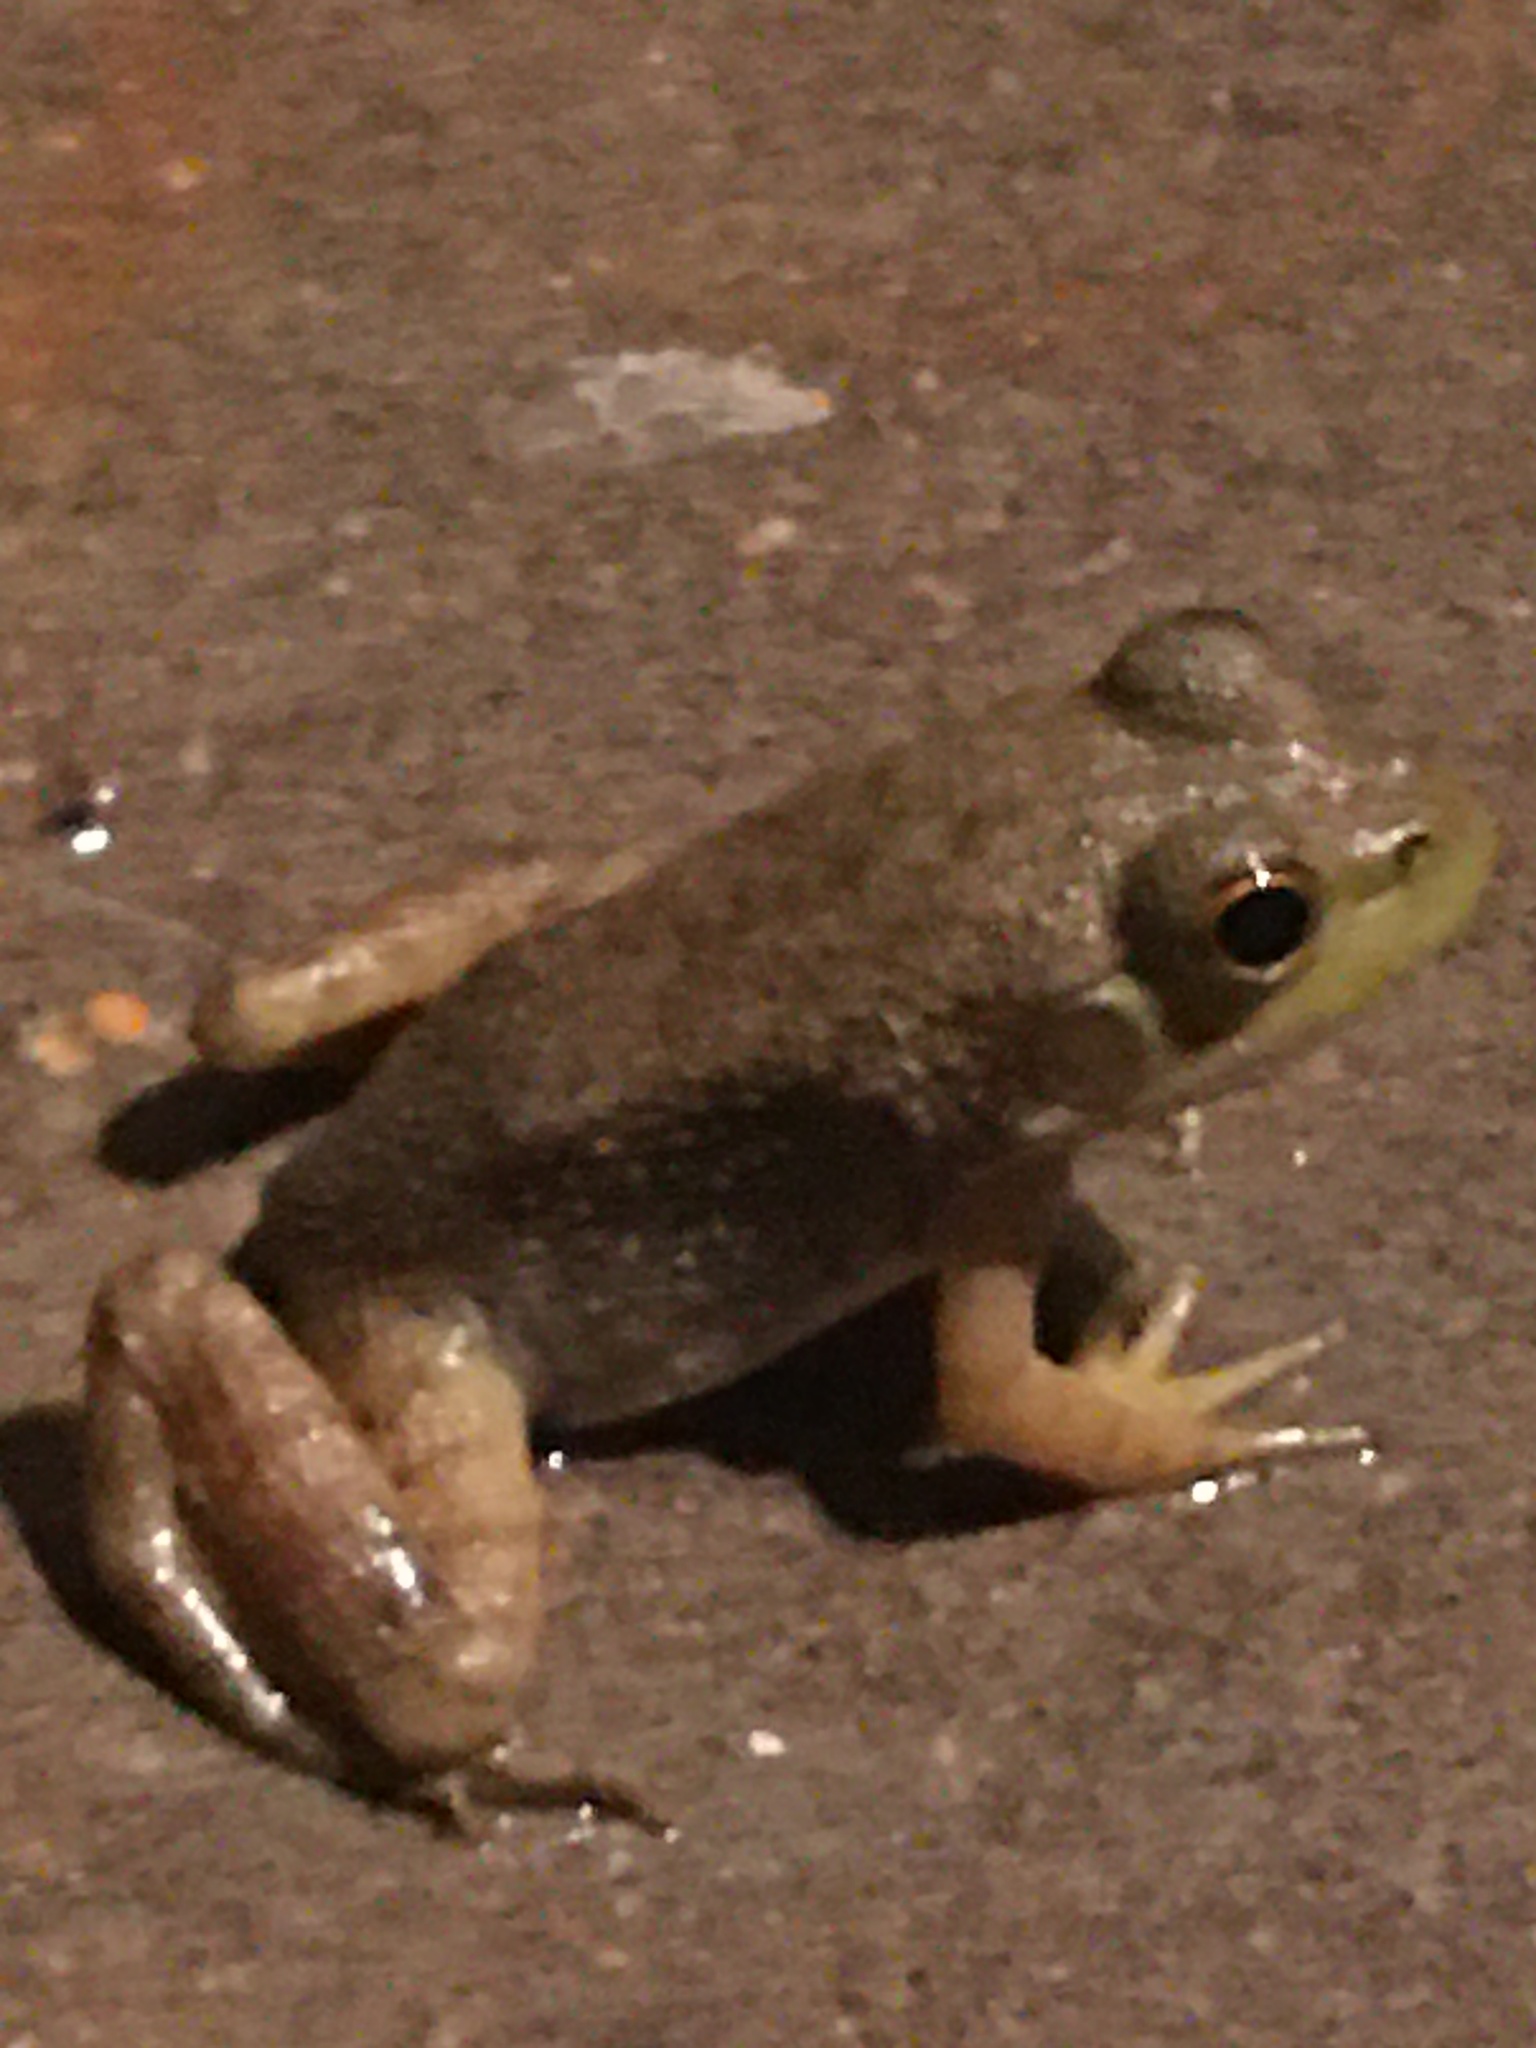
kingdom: Animalia
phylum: Chordata
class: Amphibia
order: Anura
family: Ranidae
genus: Lithobates
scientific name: Lithobates catesbeianus
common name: American bullfrog
